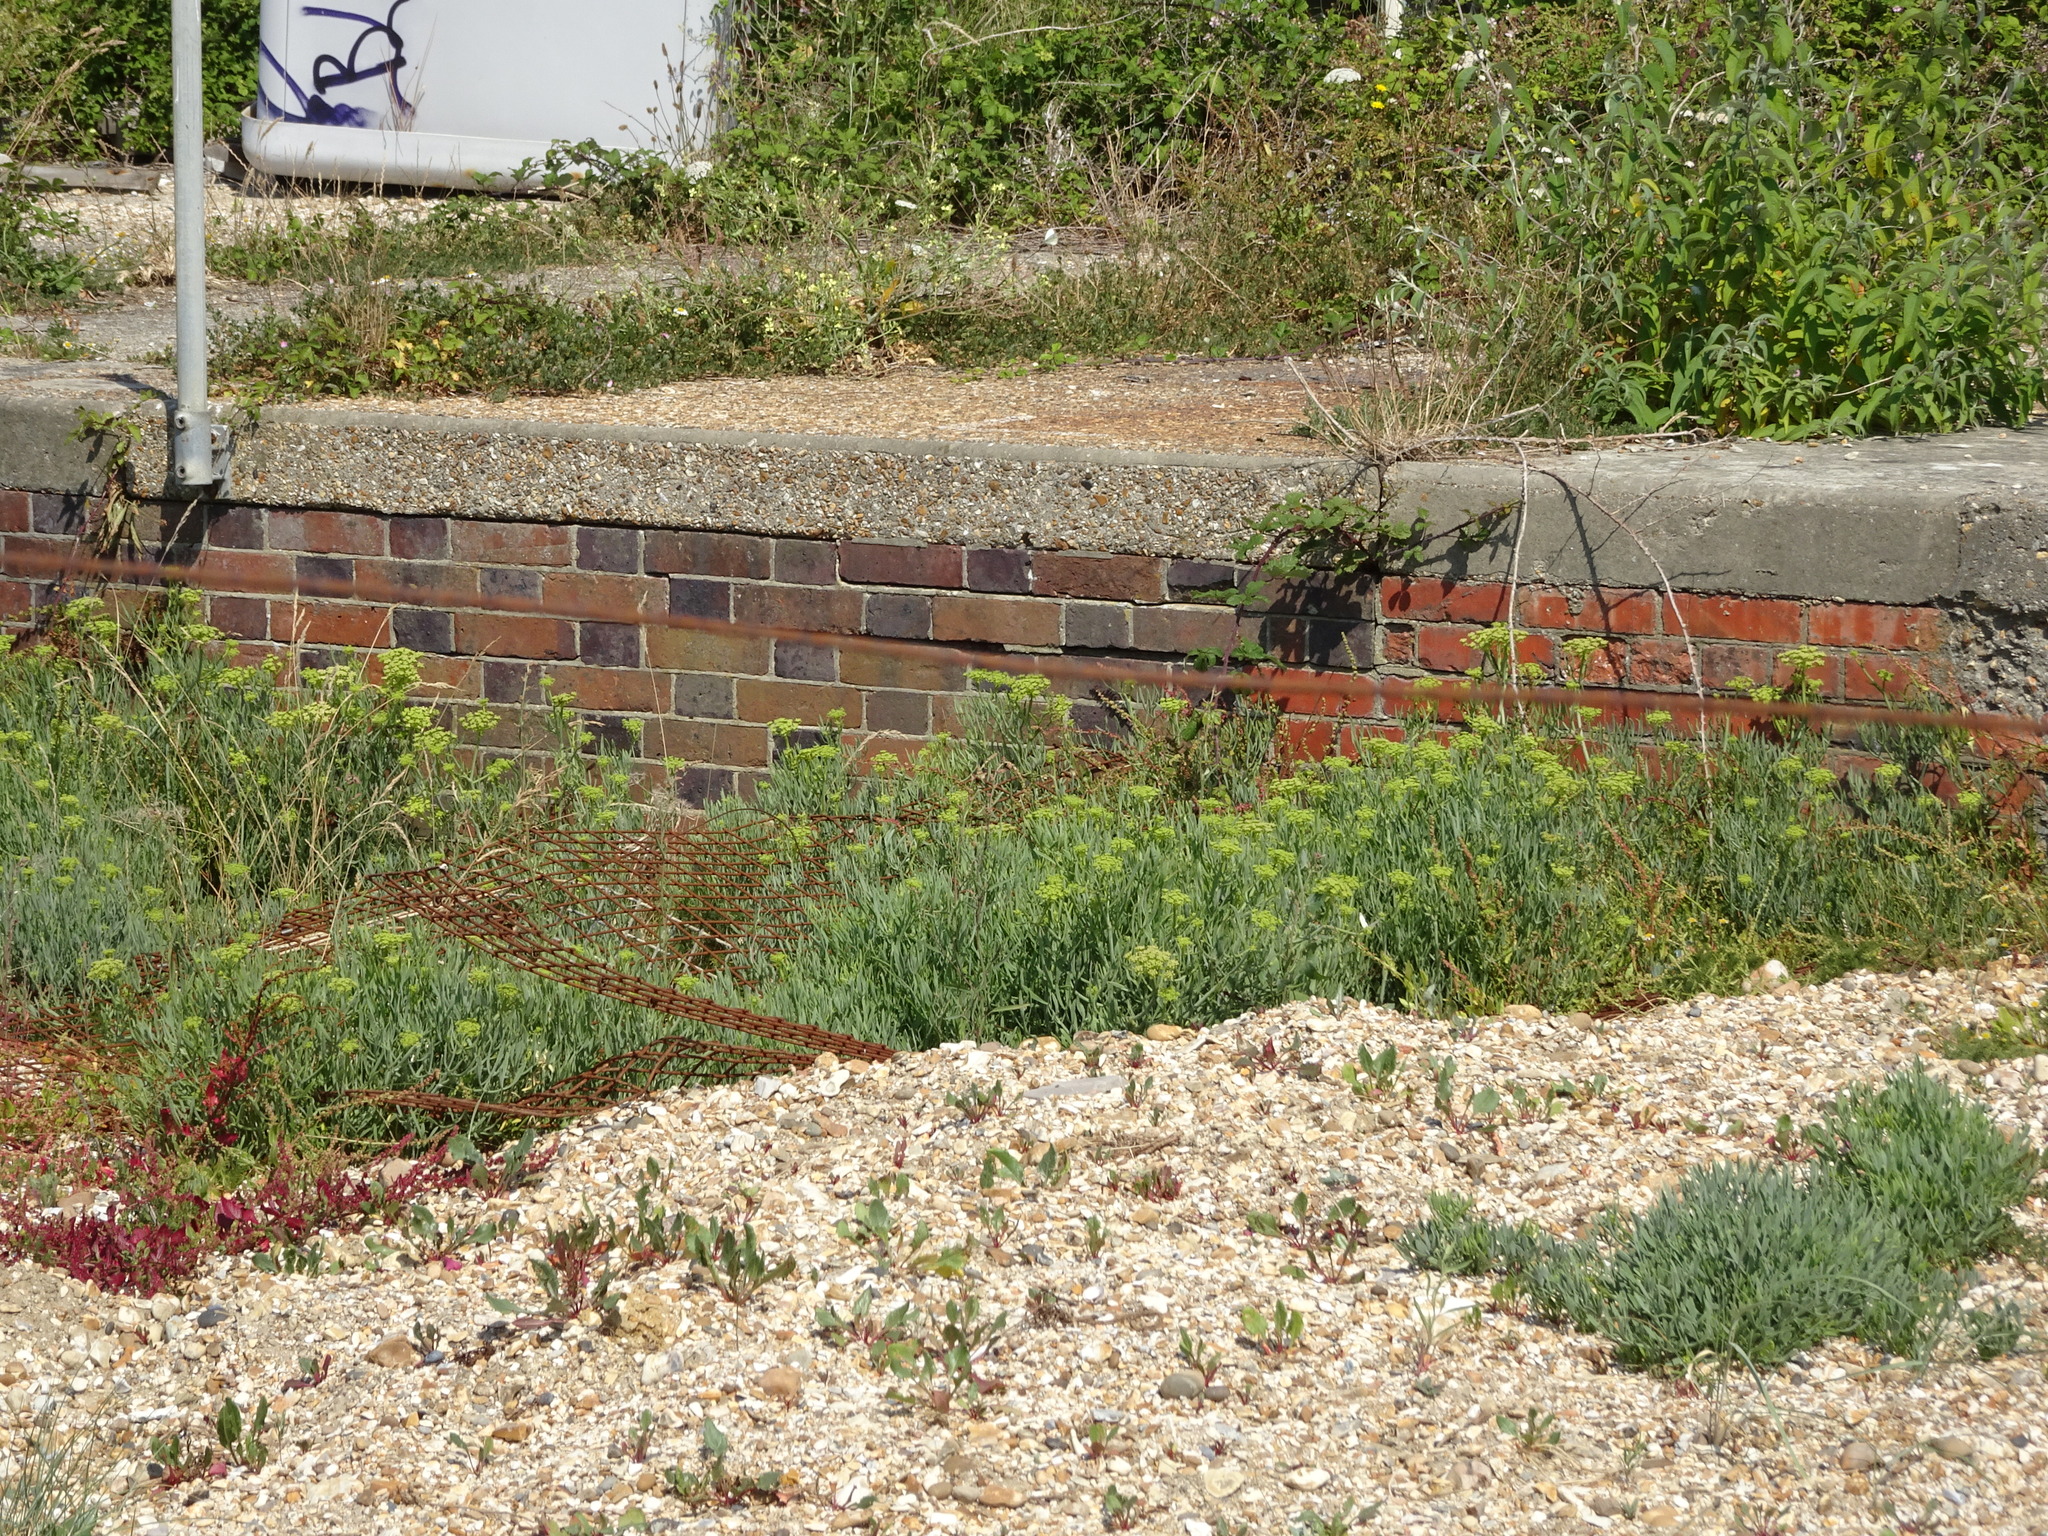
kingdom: Plantae
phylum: Tracheophyta
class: Magnoliopsida
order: Apiales
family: Apiaceae
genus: Crithmum
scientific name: Crithmum maritimum
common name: Rock samphire
